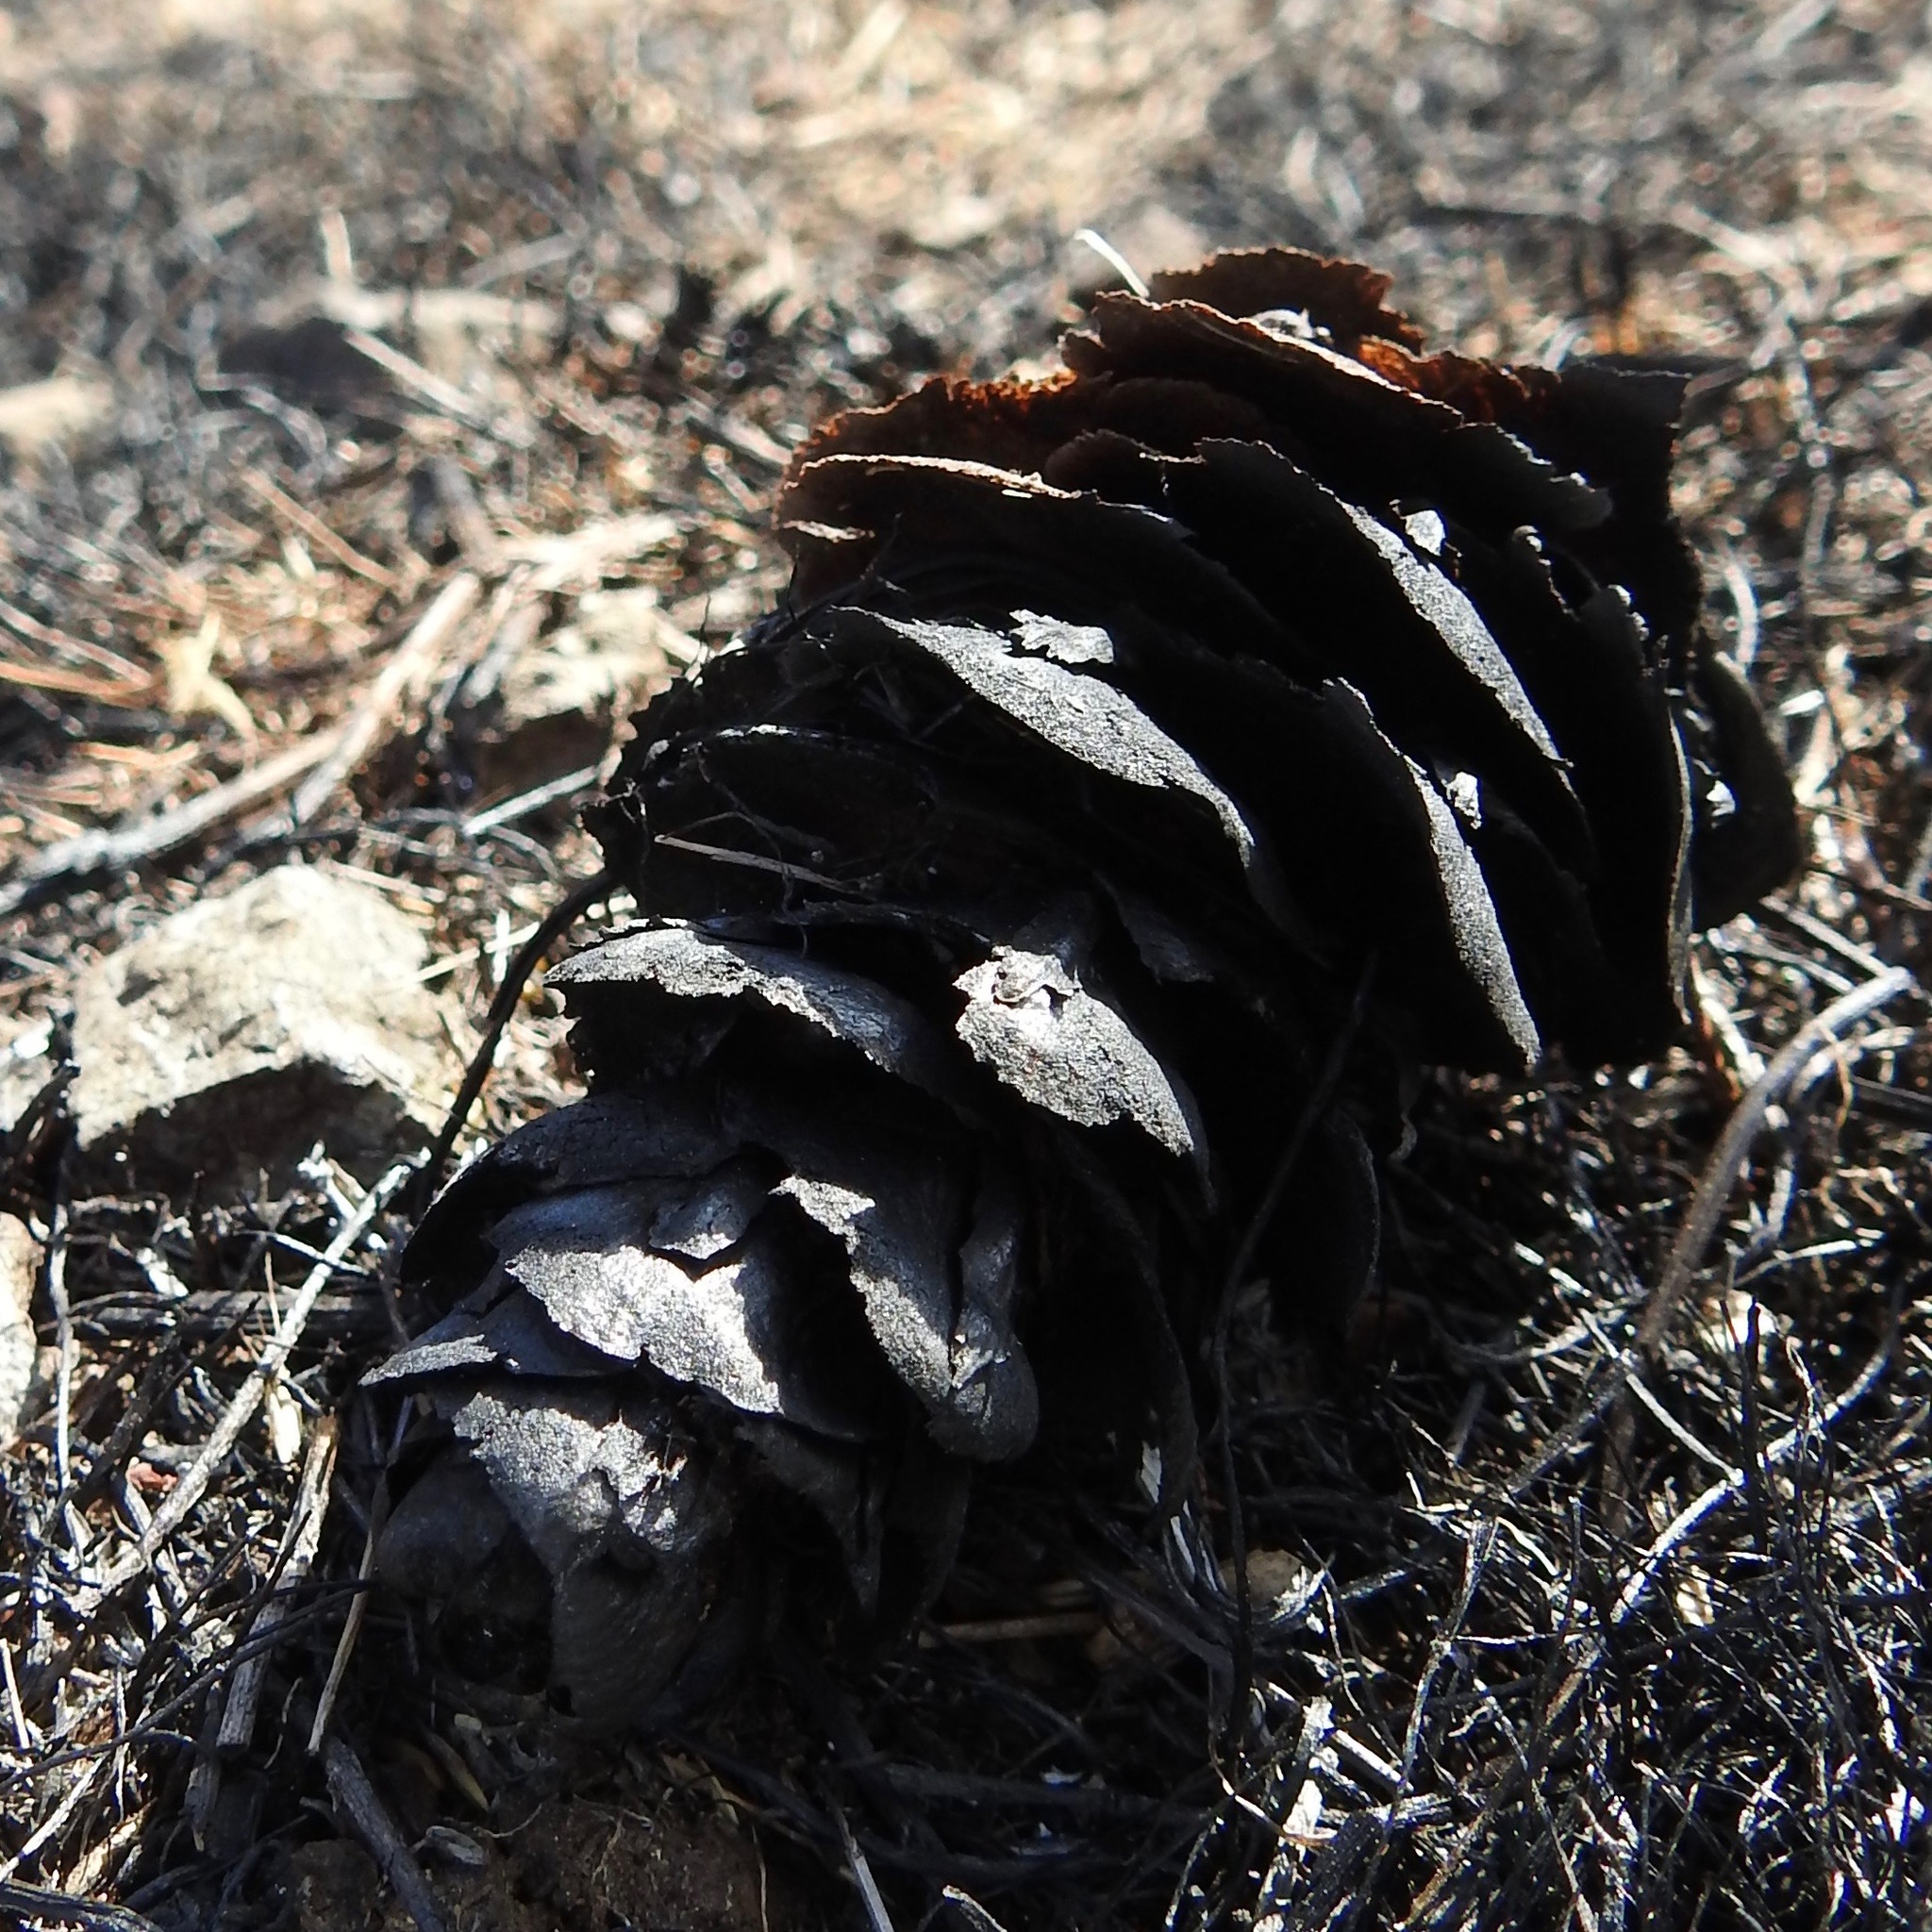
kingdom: Plantae
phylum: Tracheophyta
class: Pinopsida
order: Pinales
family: Pinaceae
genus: Pseudotsuga
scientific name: Pseudotsuga menziesii
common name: Douglas fir
